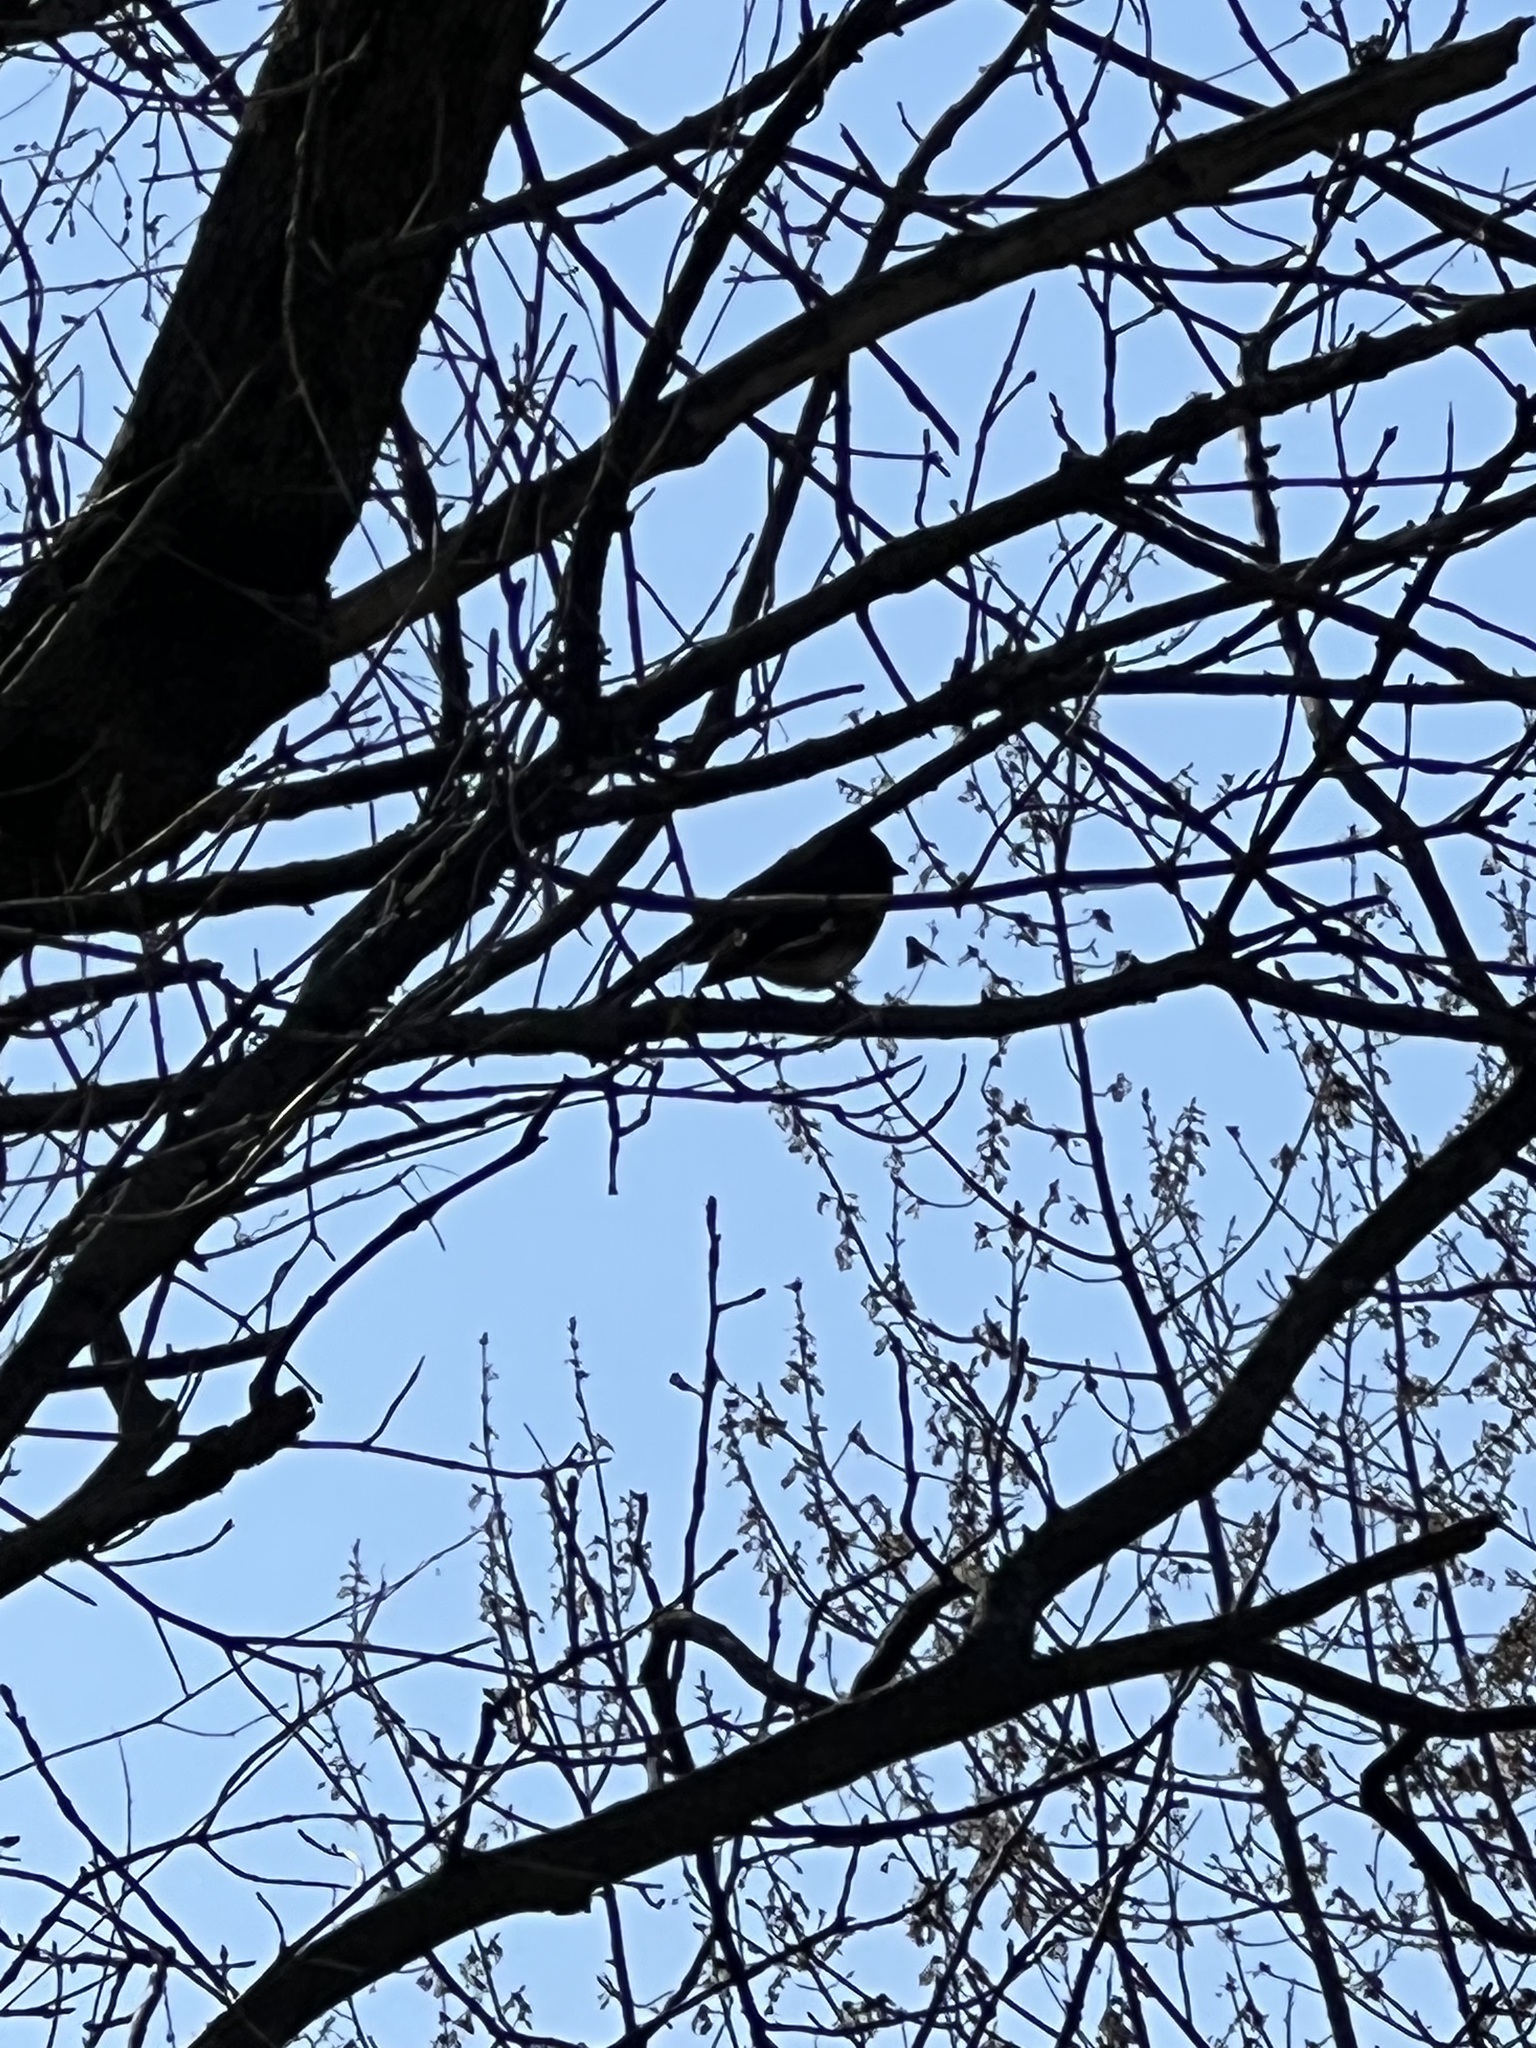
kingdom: Animalia
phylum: Chordata
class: Aves
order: Passeriformes
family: Passerellidae
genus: Pipilo
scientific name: Pipilo erythrophthalmus
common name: Eastern towhee
